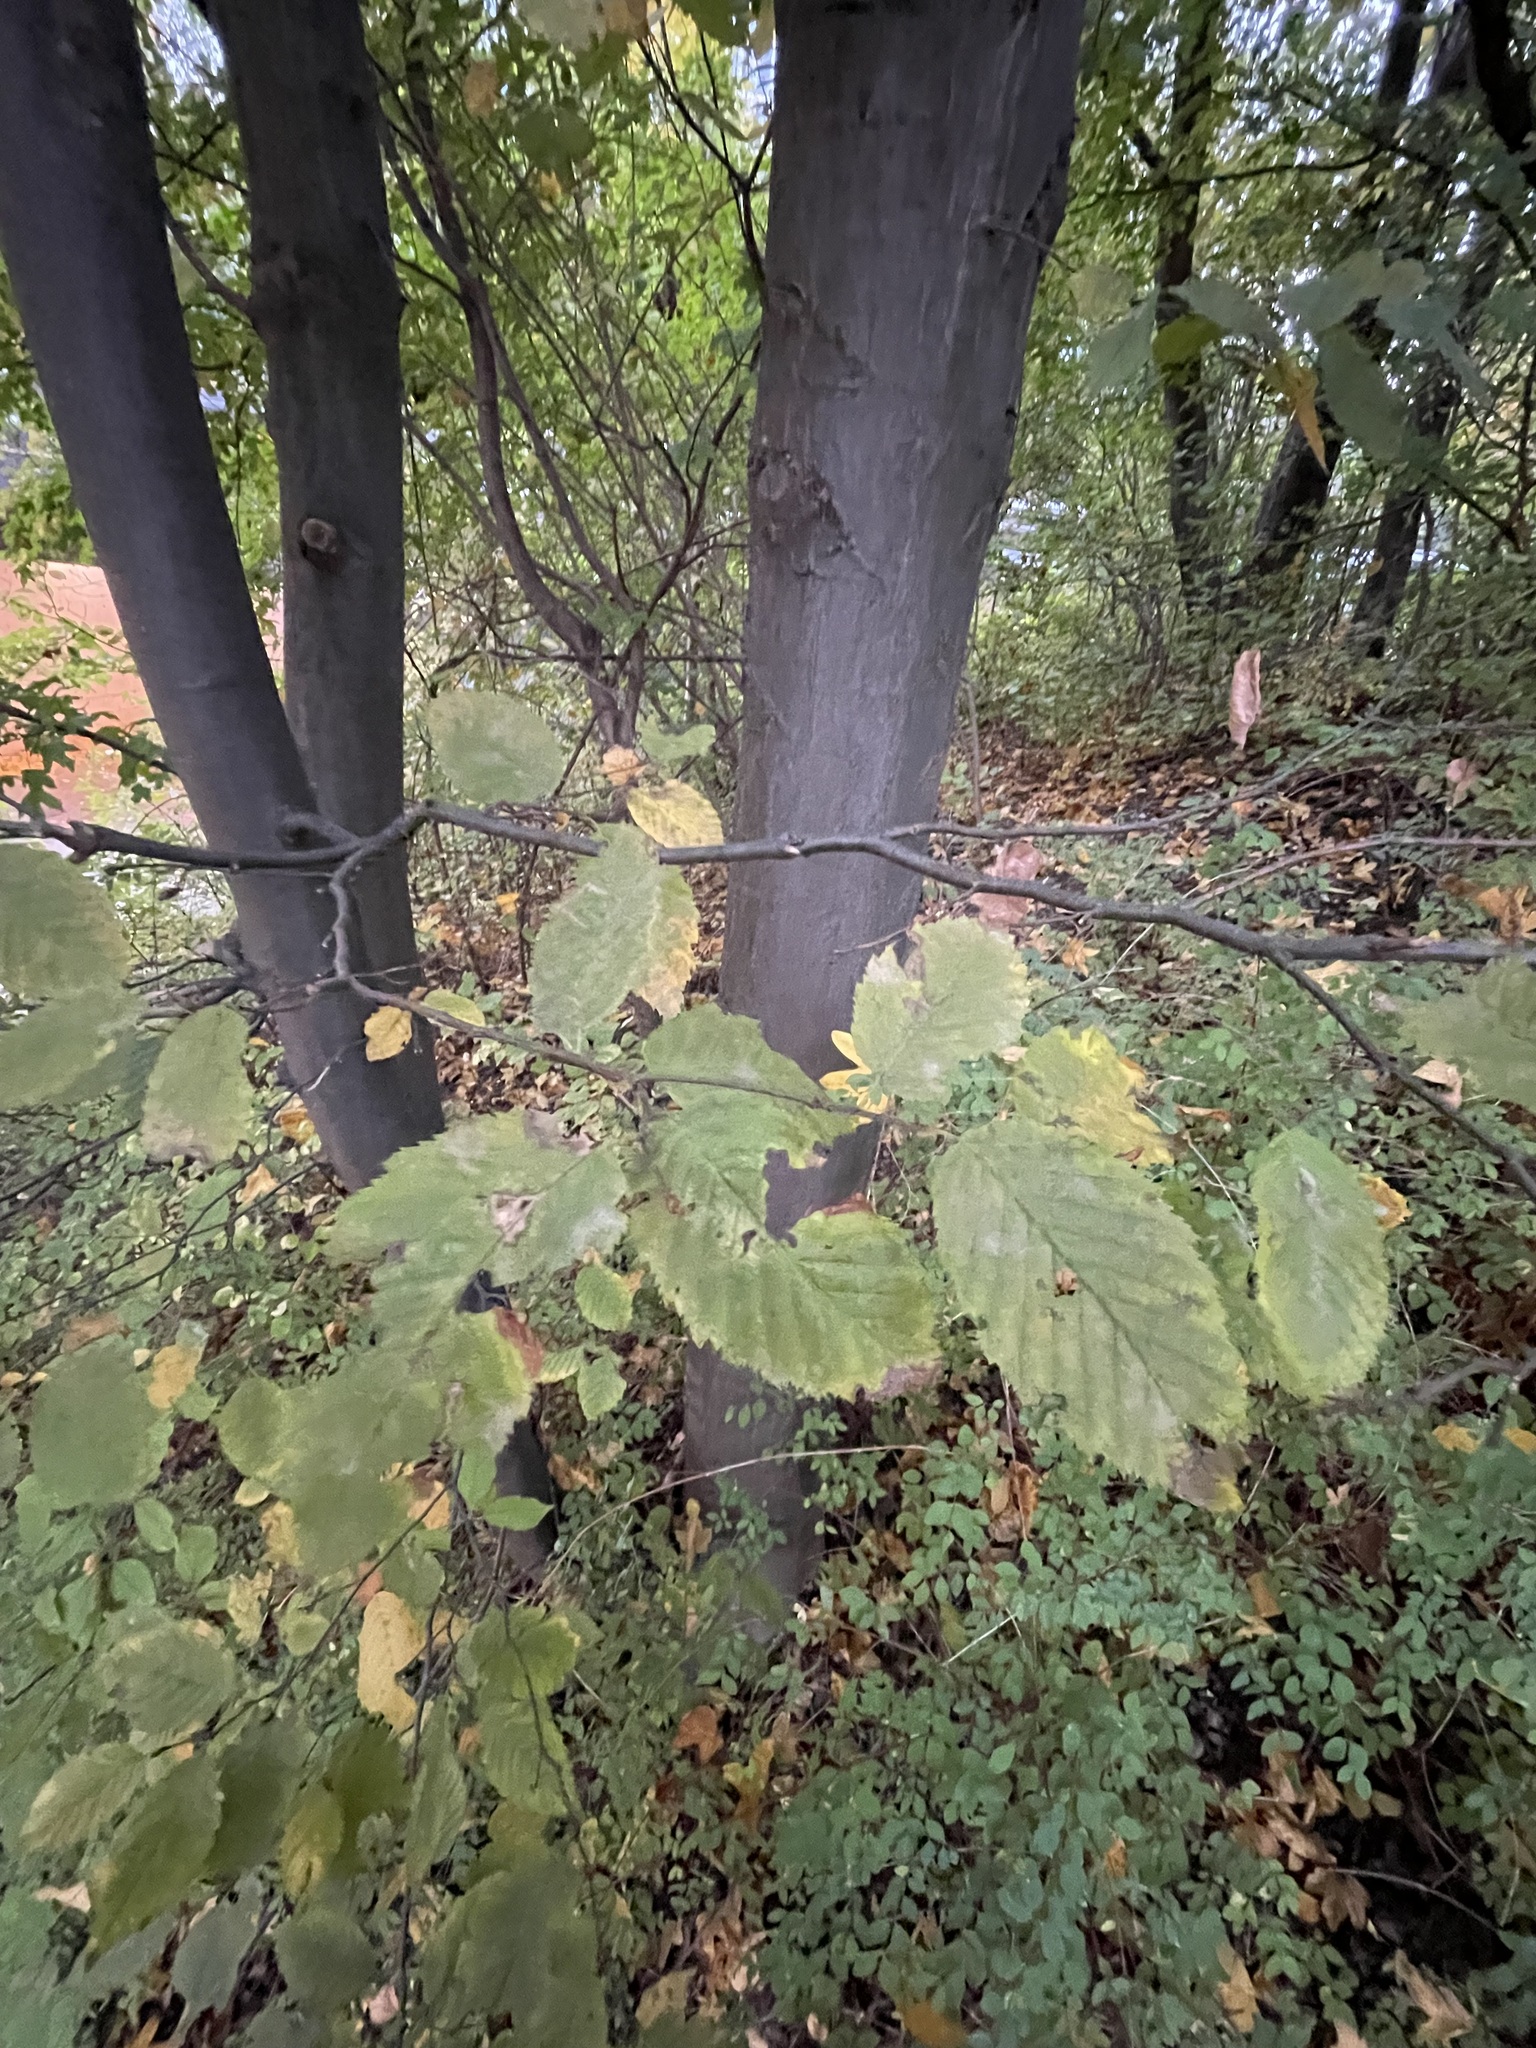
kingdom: Plantae
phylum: Tracheophyta
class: Magnoliopsida
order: Fagales
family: Betulaceae
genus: Carpinus
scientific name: Carpinus betulus
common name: Hornbeam
